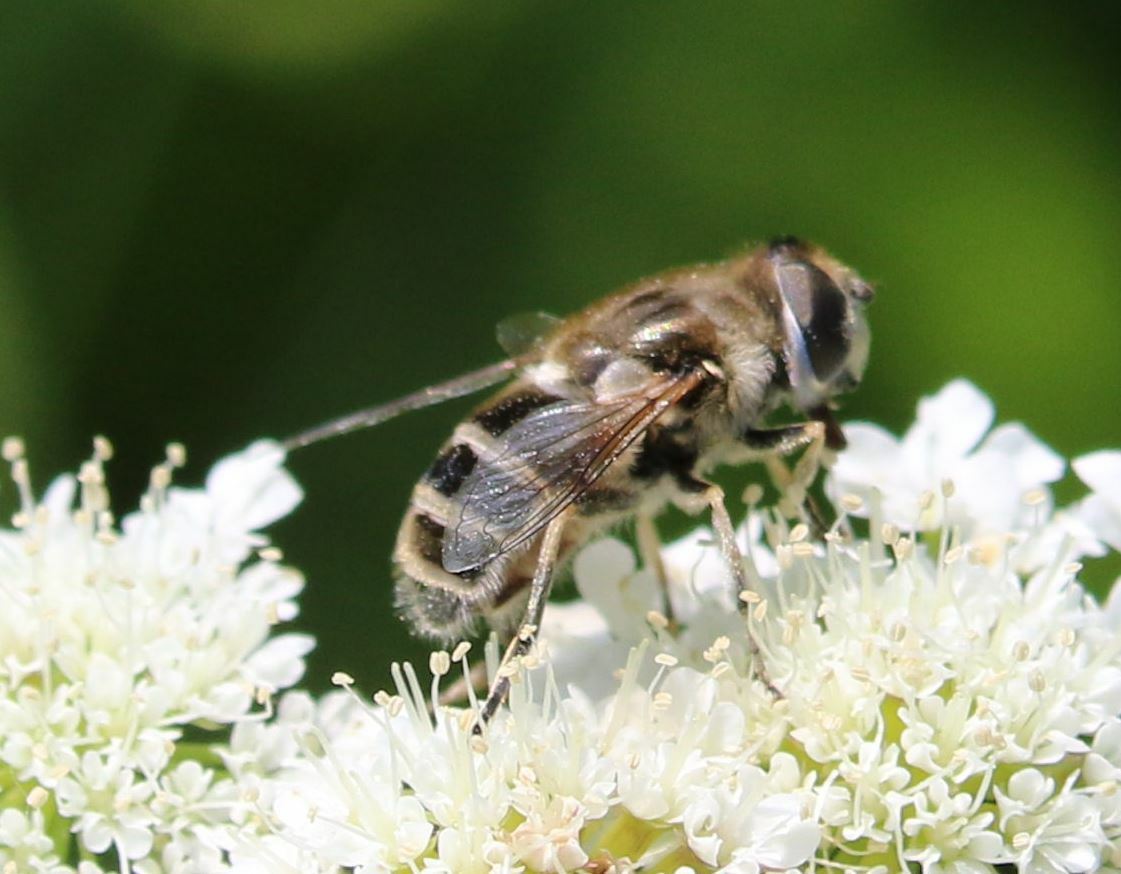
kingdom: Animalia
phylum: Arthropoda
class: Insecta
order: Diptera
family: Syrphidae
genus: Eristalis
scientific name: Eristalis arbustorum
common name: Hover fly
